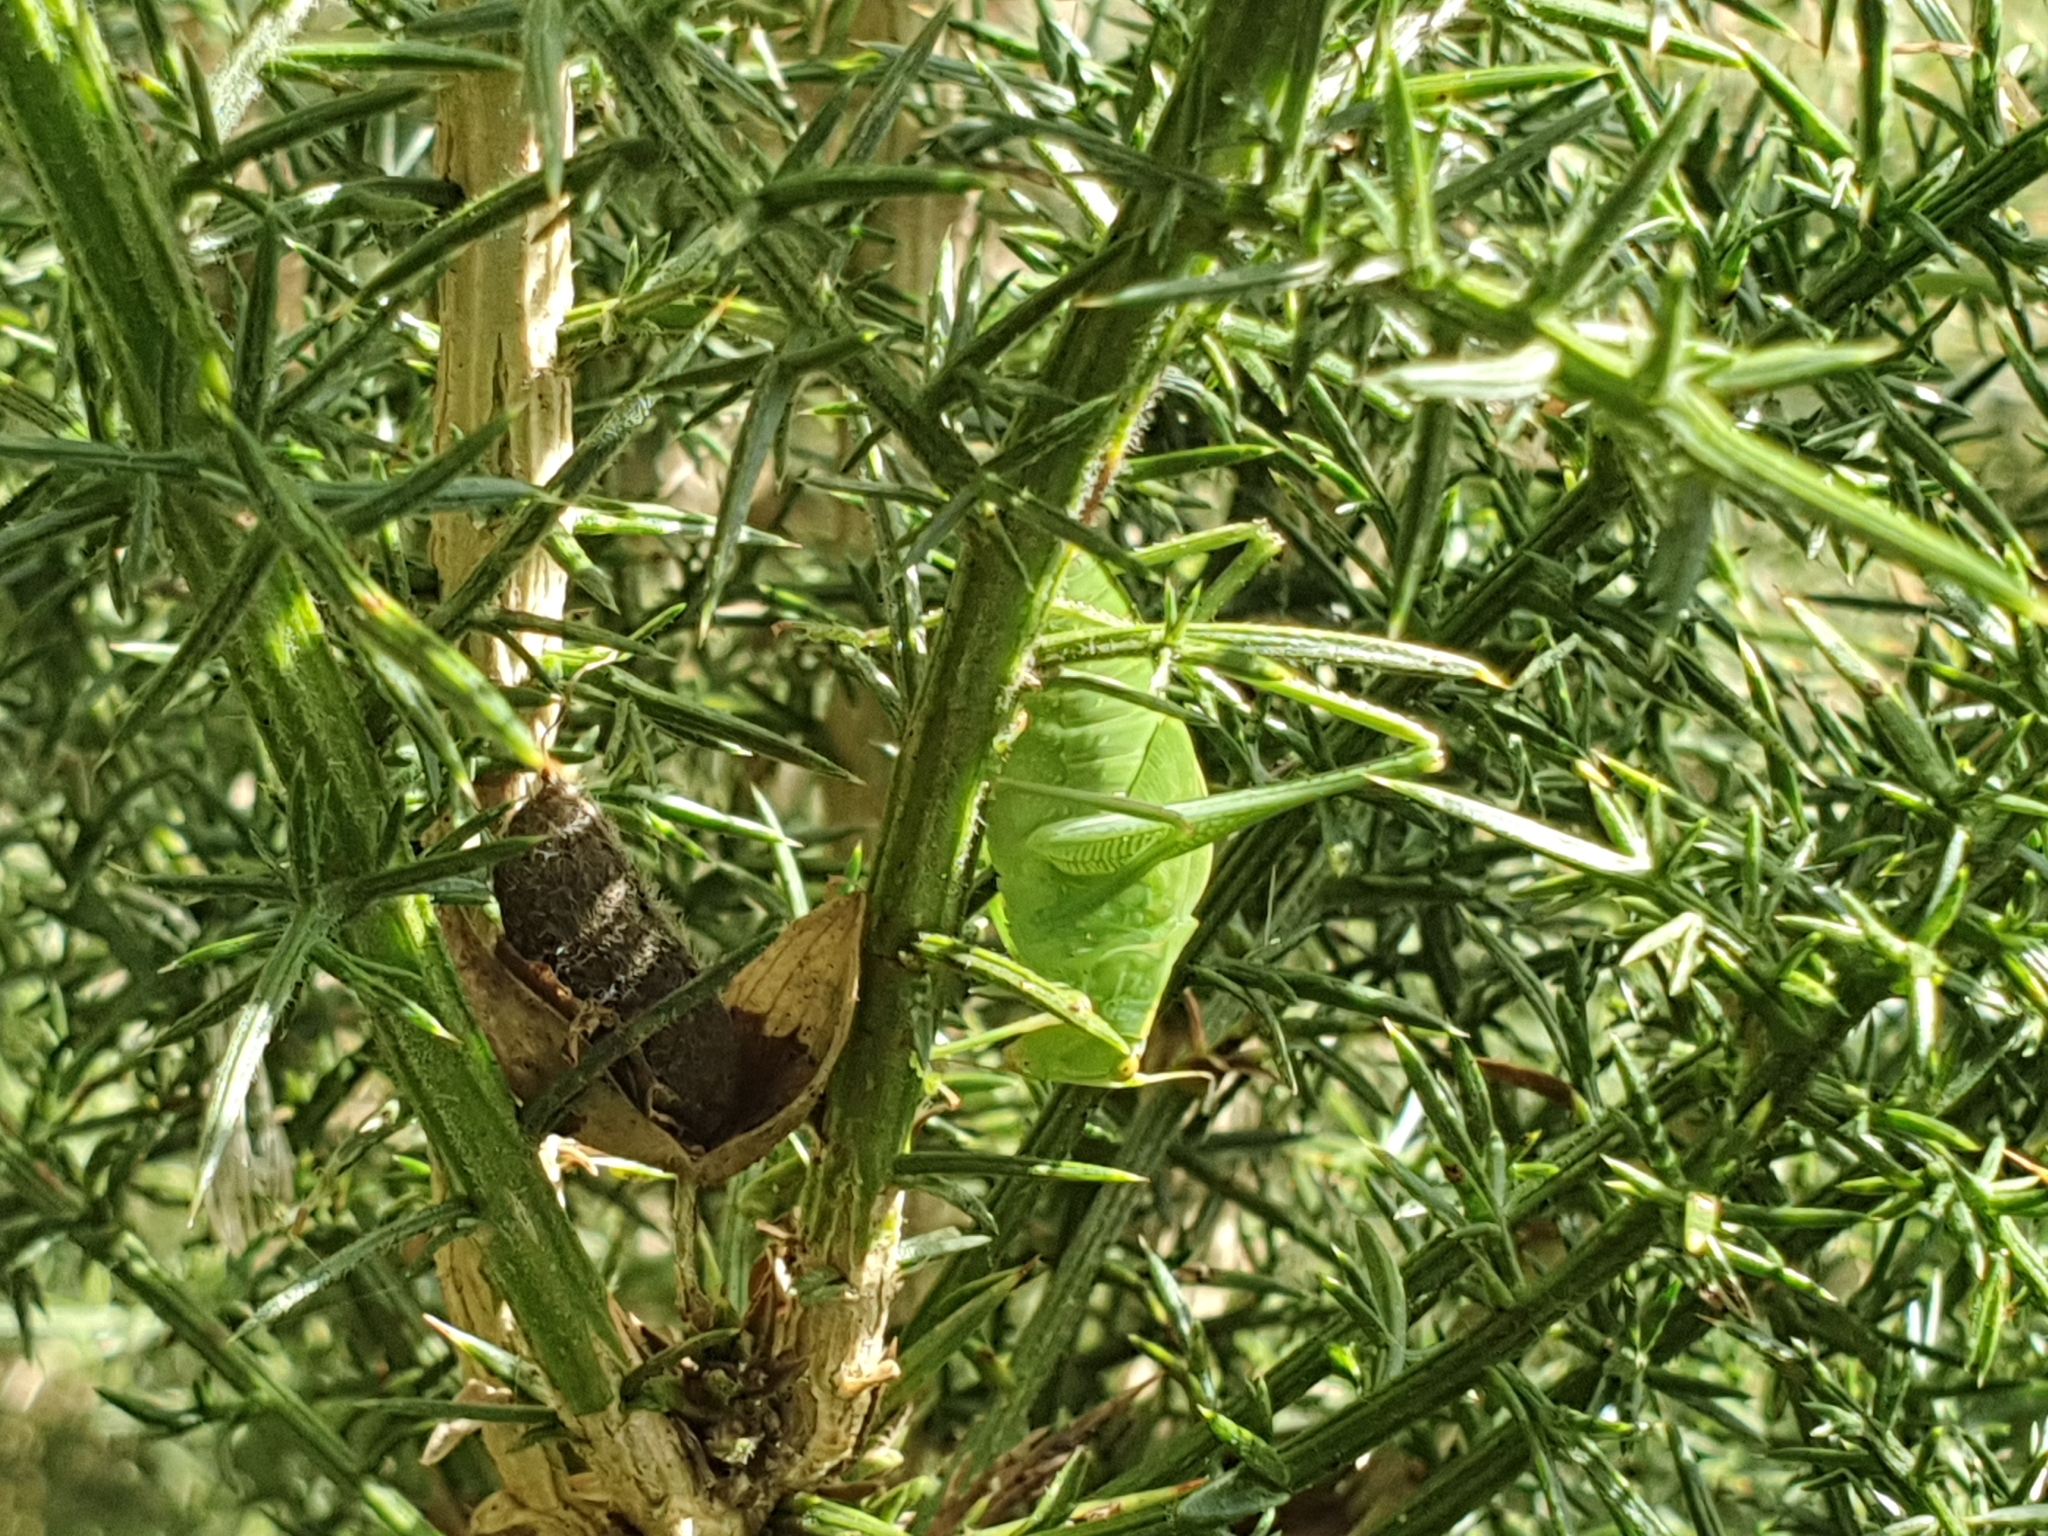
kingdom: Animalia
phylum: Arthropoda
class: Insecta
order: Orthoptera
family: Tettigoniidae
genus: Caedicia
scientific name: Caedicia simplex
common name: Common garden katydid
